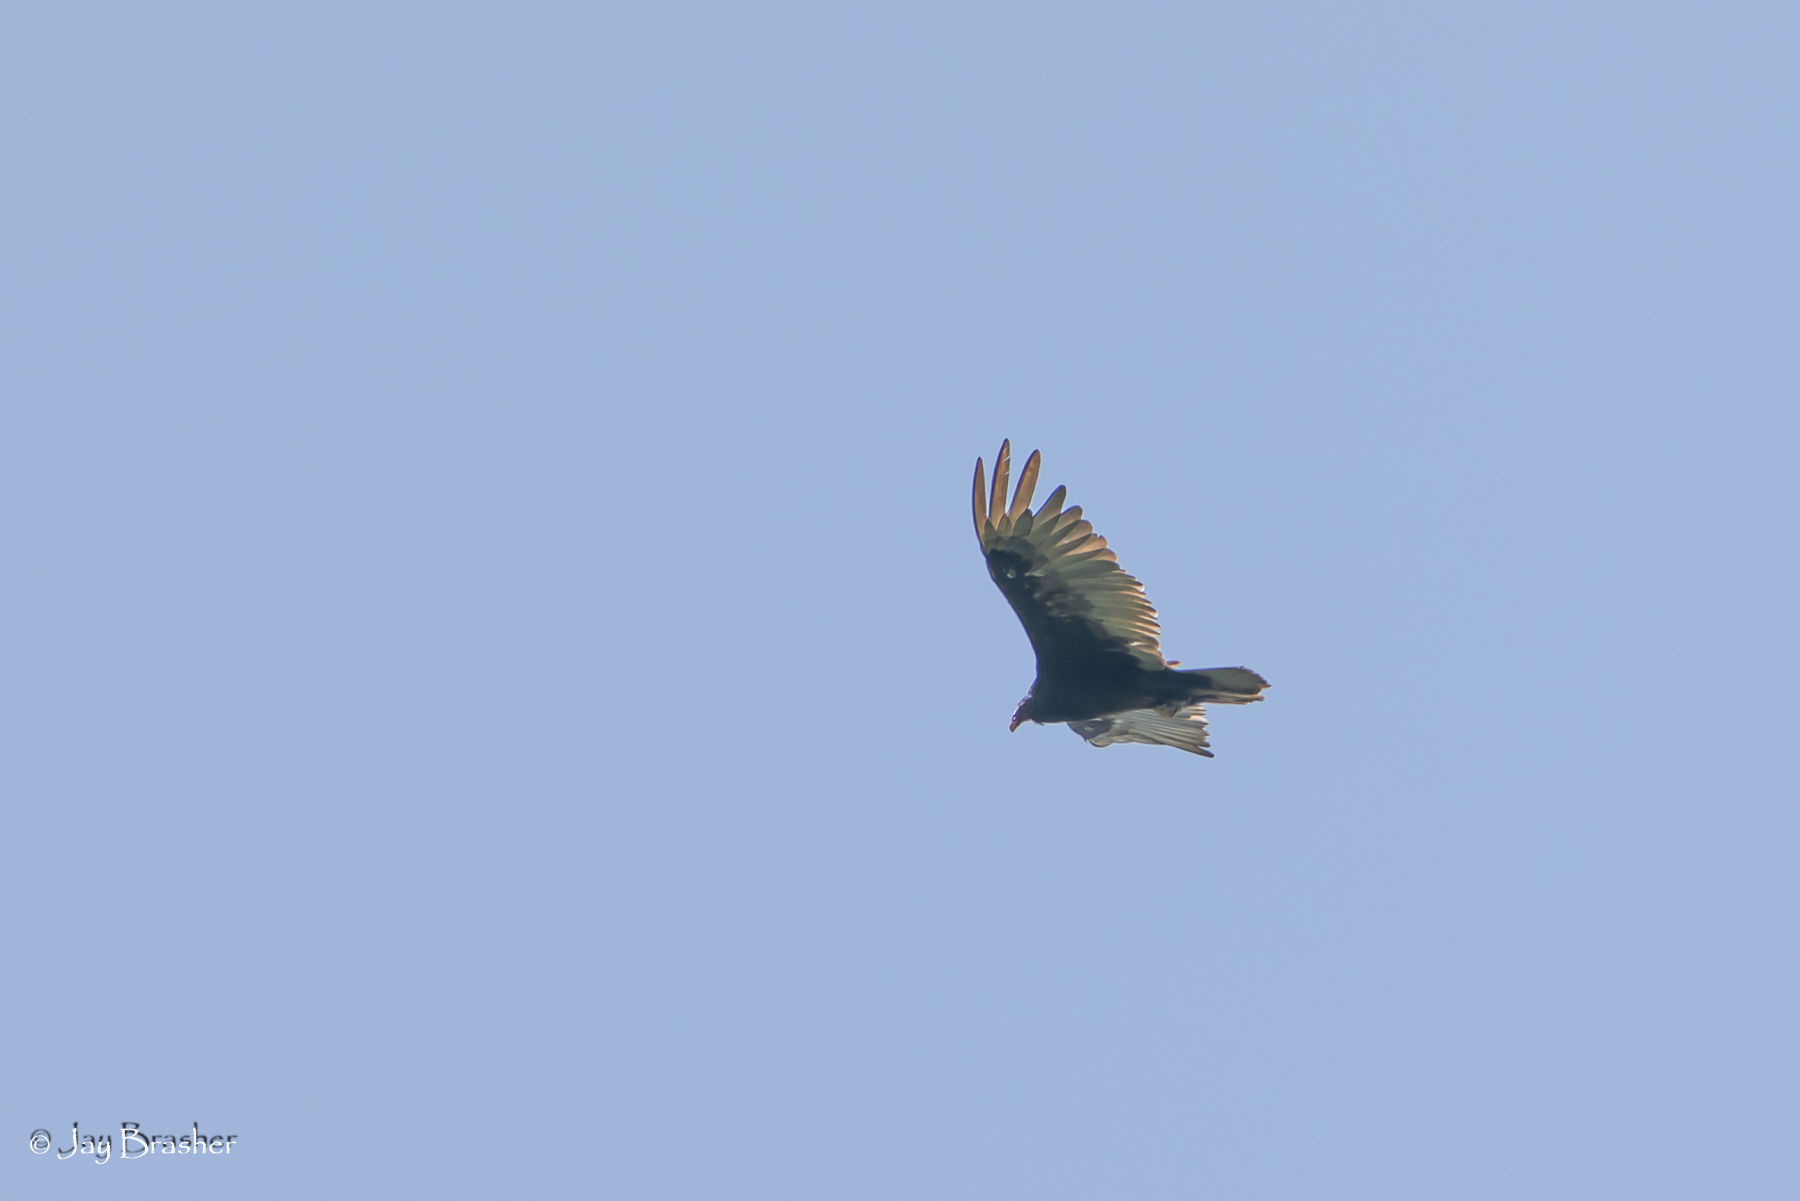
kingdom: Animalia
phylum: Chordata
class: Aves
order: Accipitriformes
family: Cathartidae
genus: Cathartes
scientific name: Cathartes aura
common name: Turkey vulture
